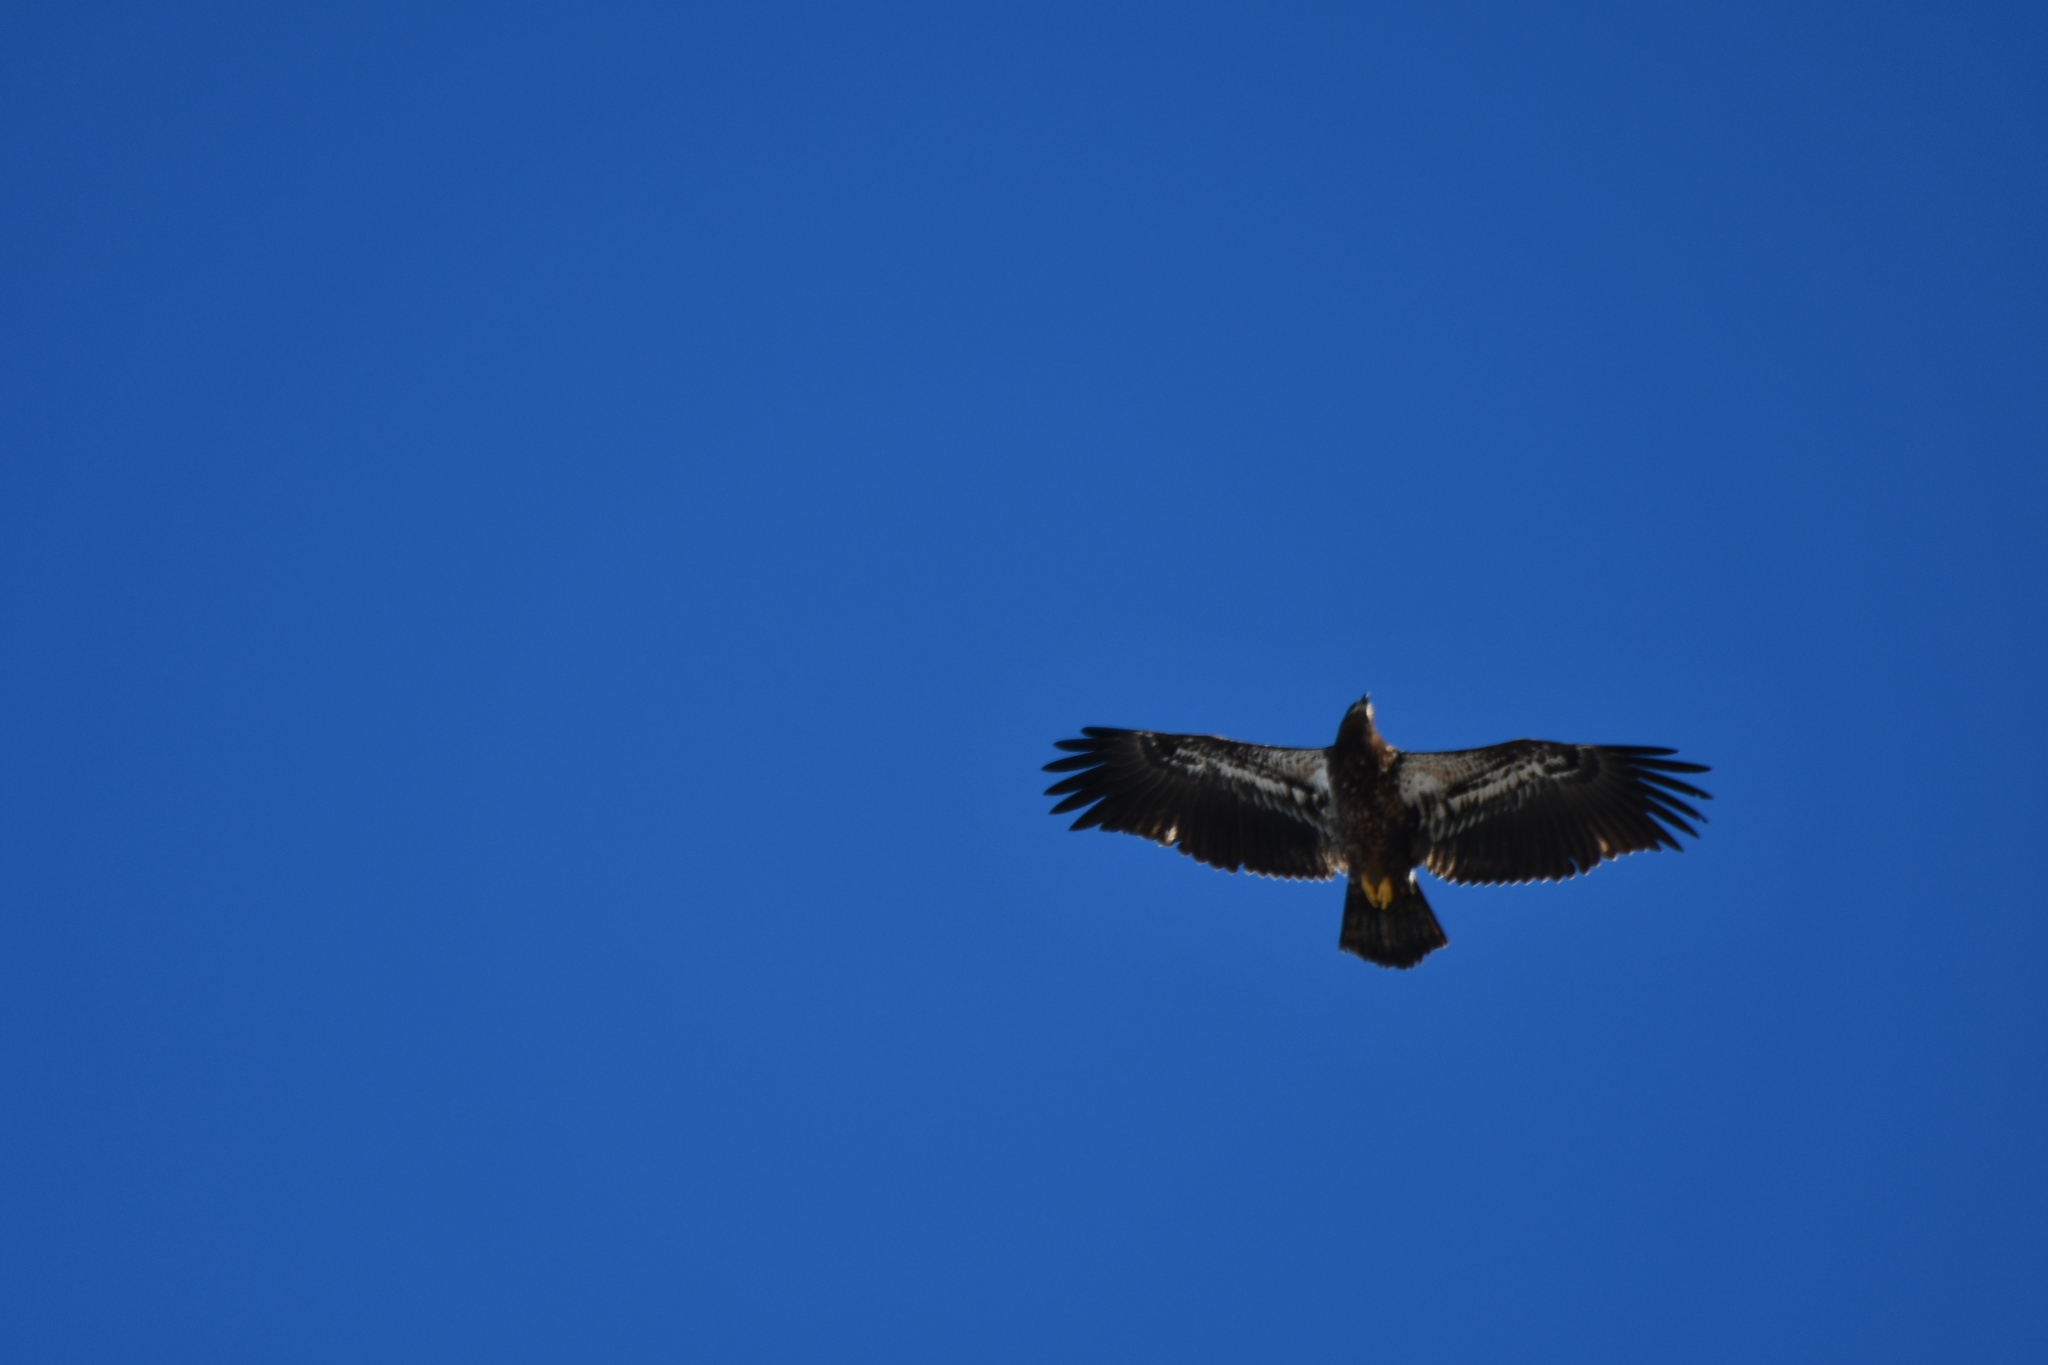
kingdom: Animalia
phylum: Chordata
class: Aves
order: Accipitriformes
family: Accipitridae
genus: Haliaeetus
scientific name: Haliaeetus leucocephalus
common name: Bald eagle
